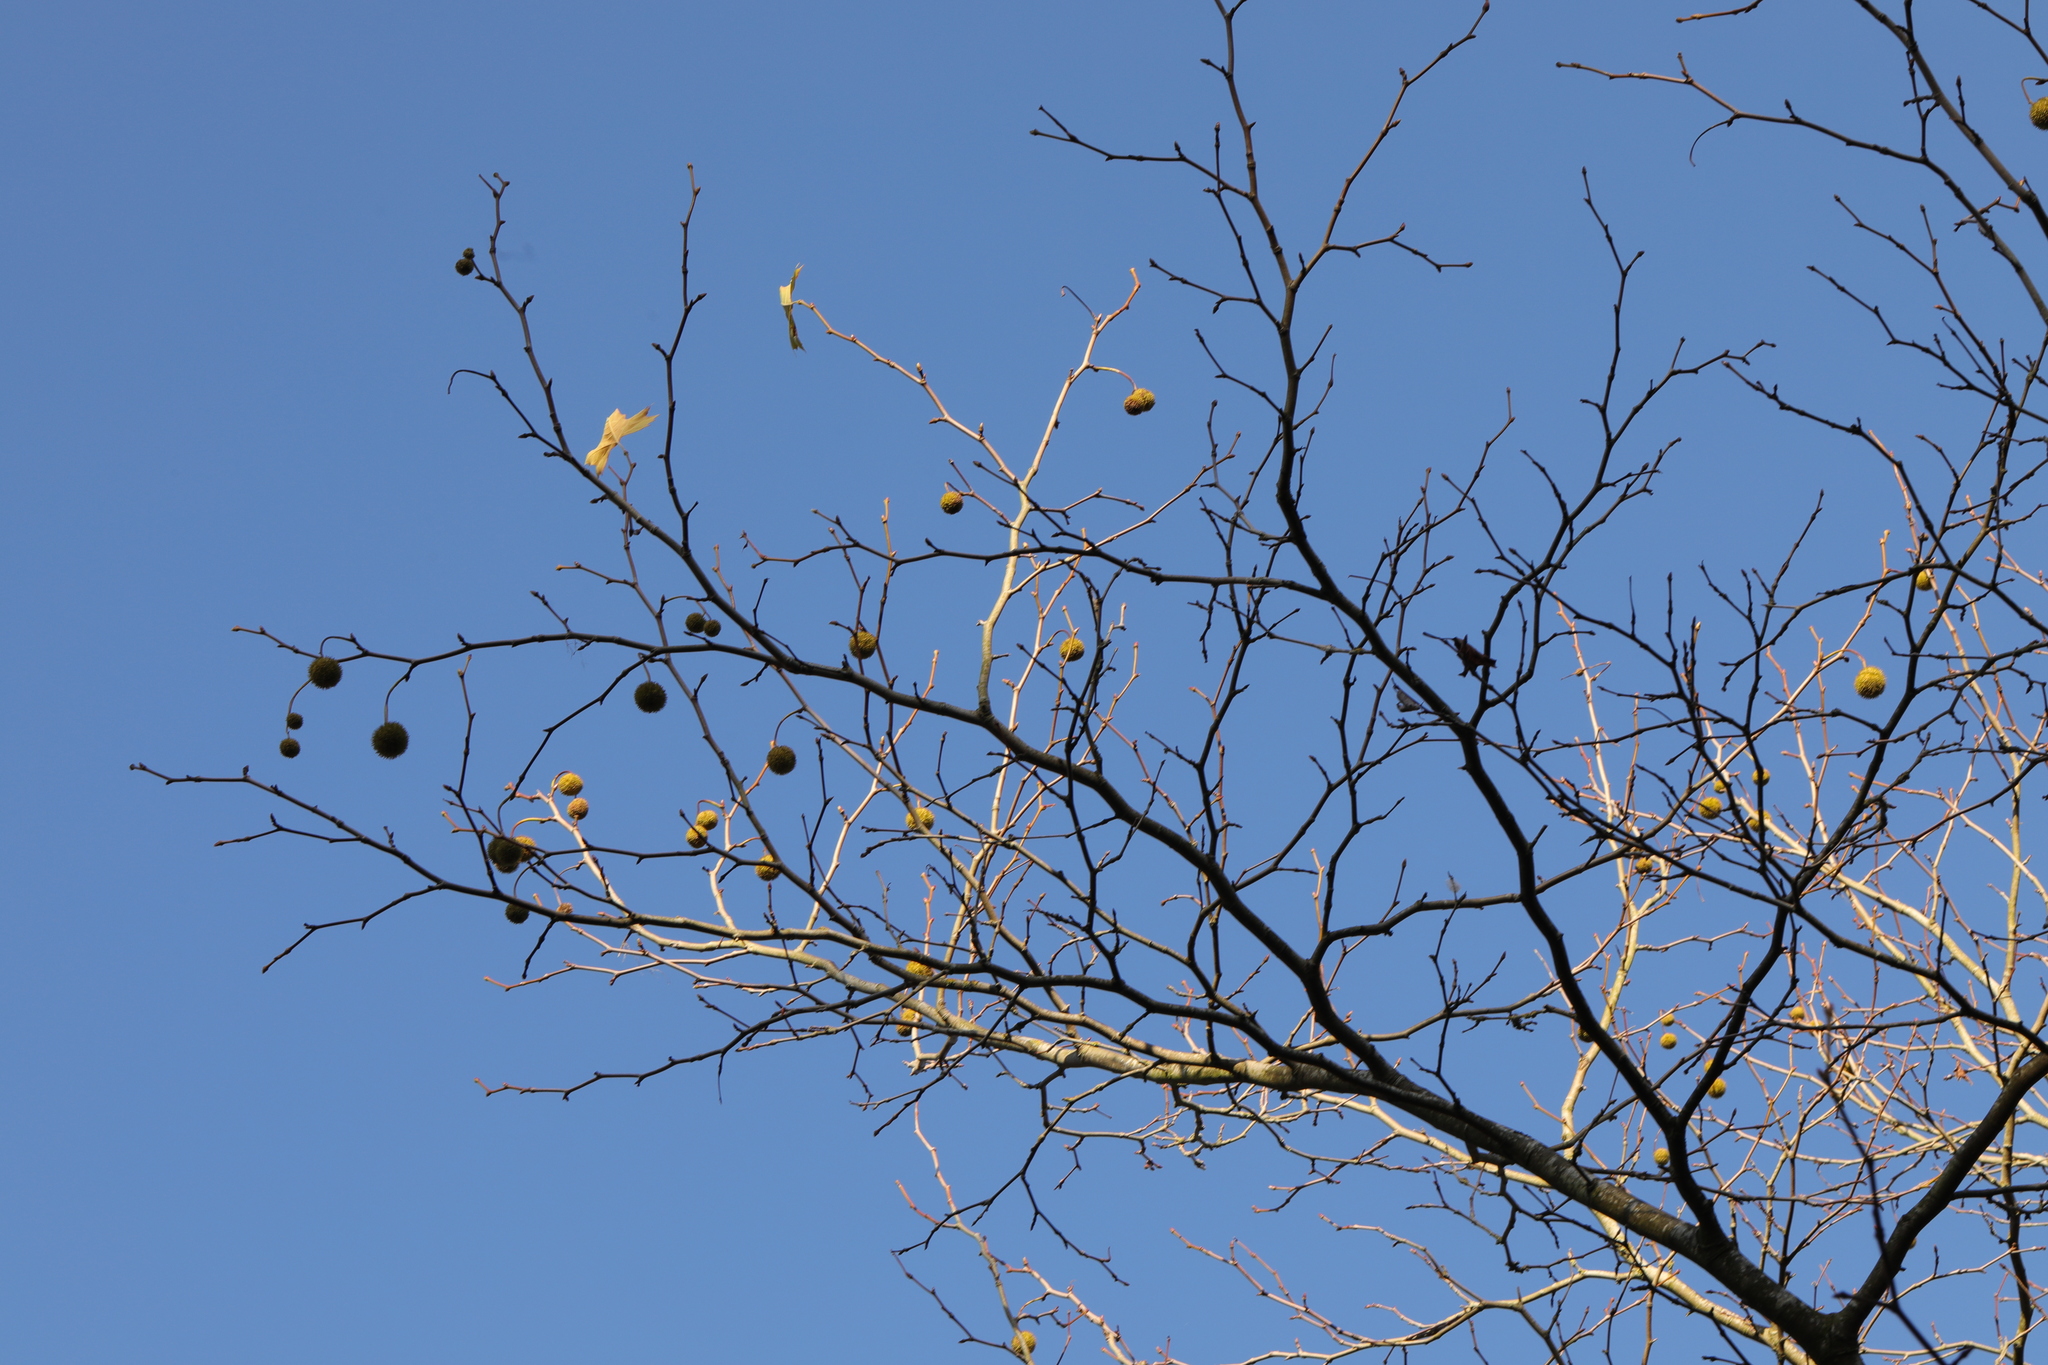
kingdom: Plantae
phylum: Tracheophyta
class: Magnoliopsida
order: Proteales
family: Platanaceae
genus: Platanus
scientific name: Platanus hispanica
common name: London plane
